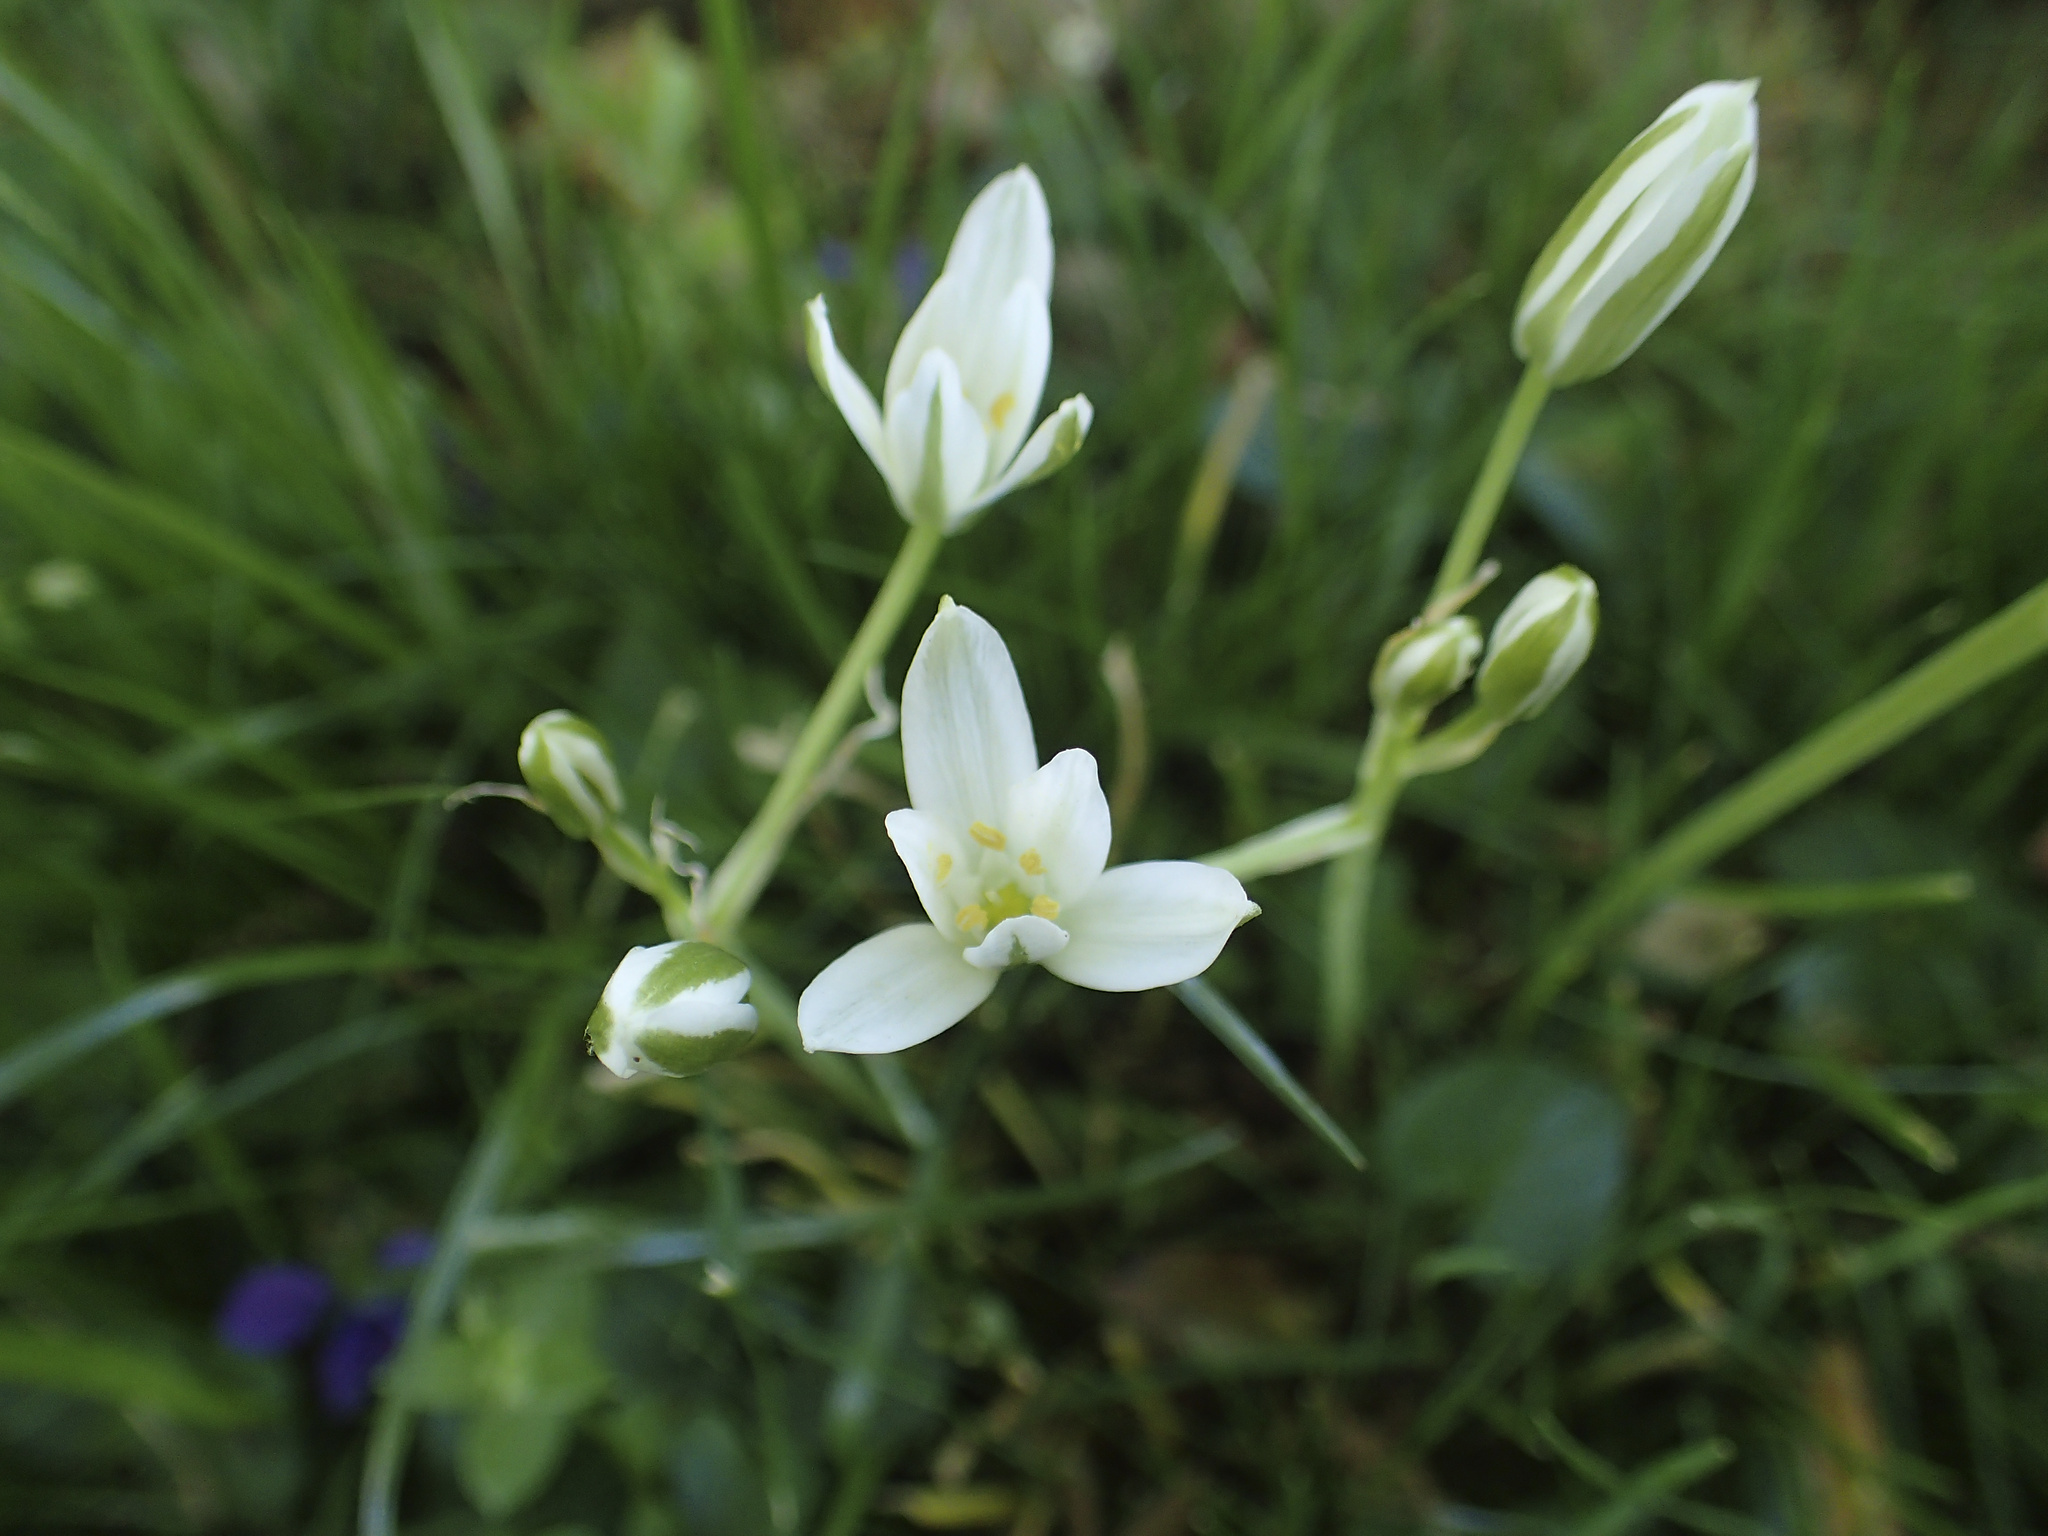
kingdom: Plantae
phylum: Tracheophyta
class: Liliopsida
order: Asparagales
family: Asparagaceae
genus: Ornithogalum
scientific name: Ornithogalum umbellatum
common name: Garden star-of-bethlehem
